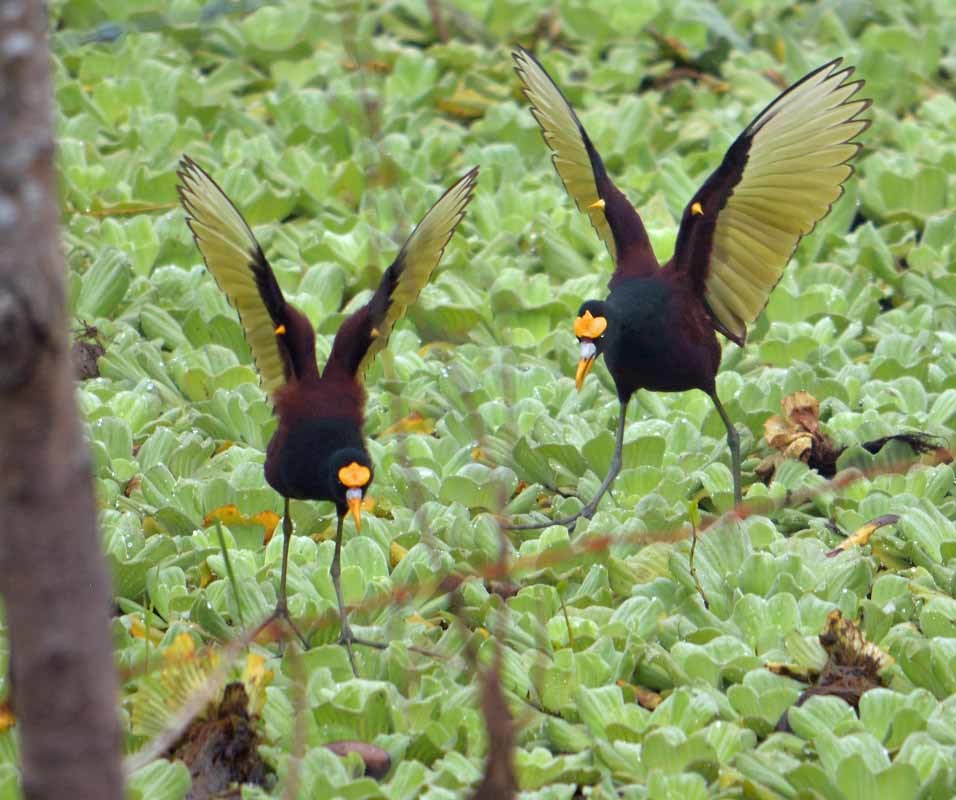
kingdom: Animalia
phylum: Chordata
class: Aves
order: Charadriiformes
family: Jacanidae
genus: Jacana
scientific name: Jacana spinosa
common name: Northern jacana
